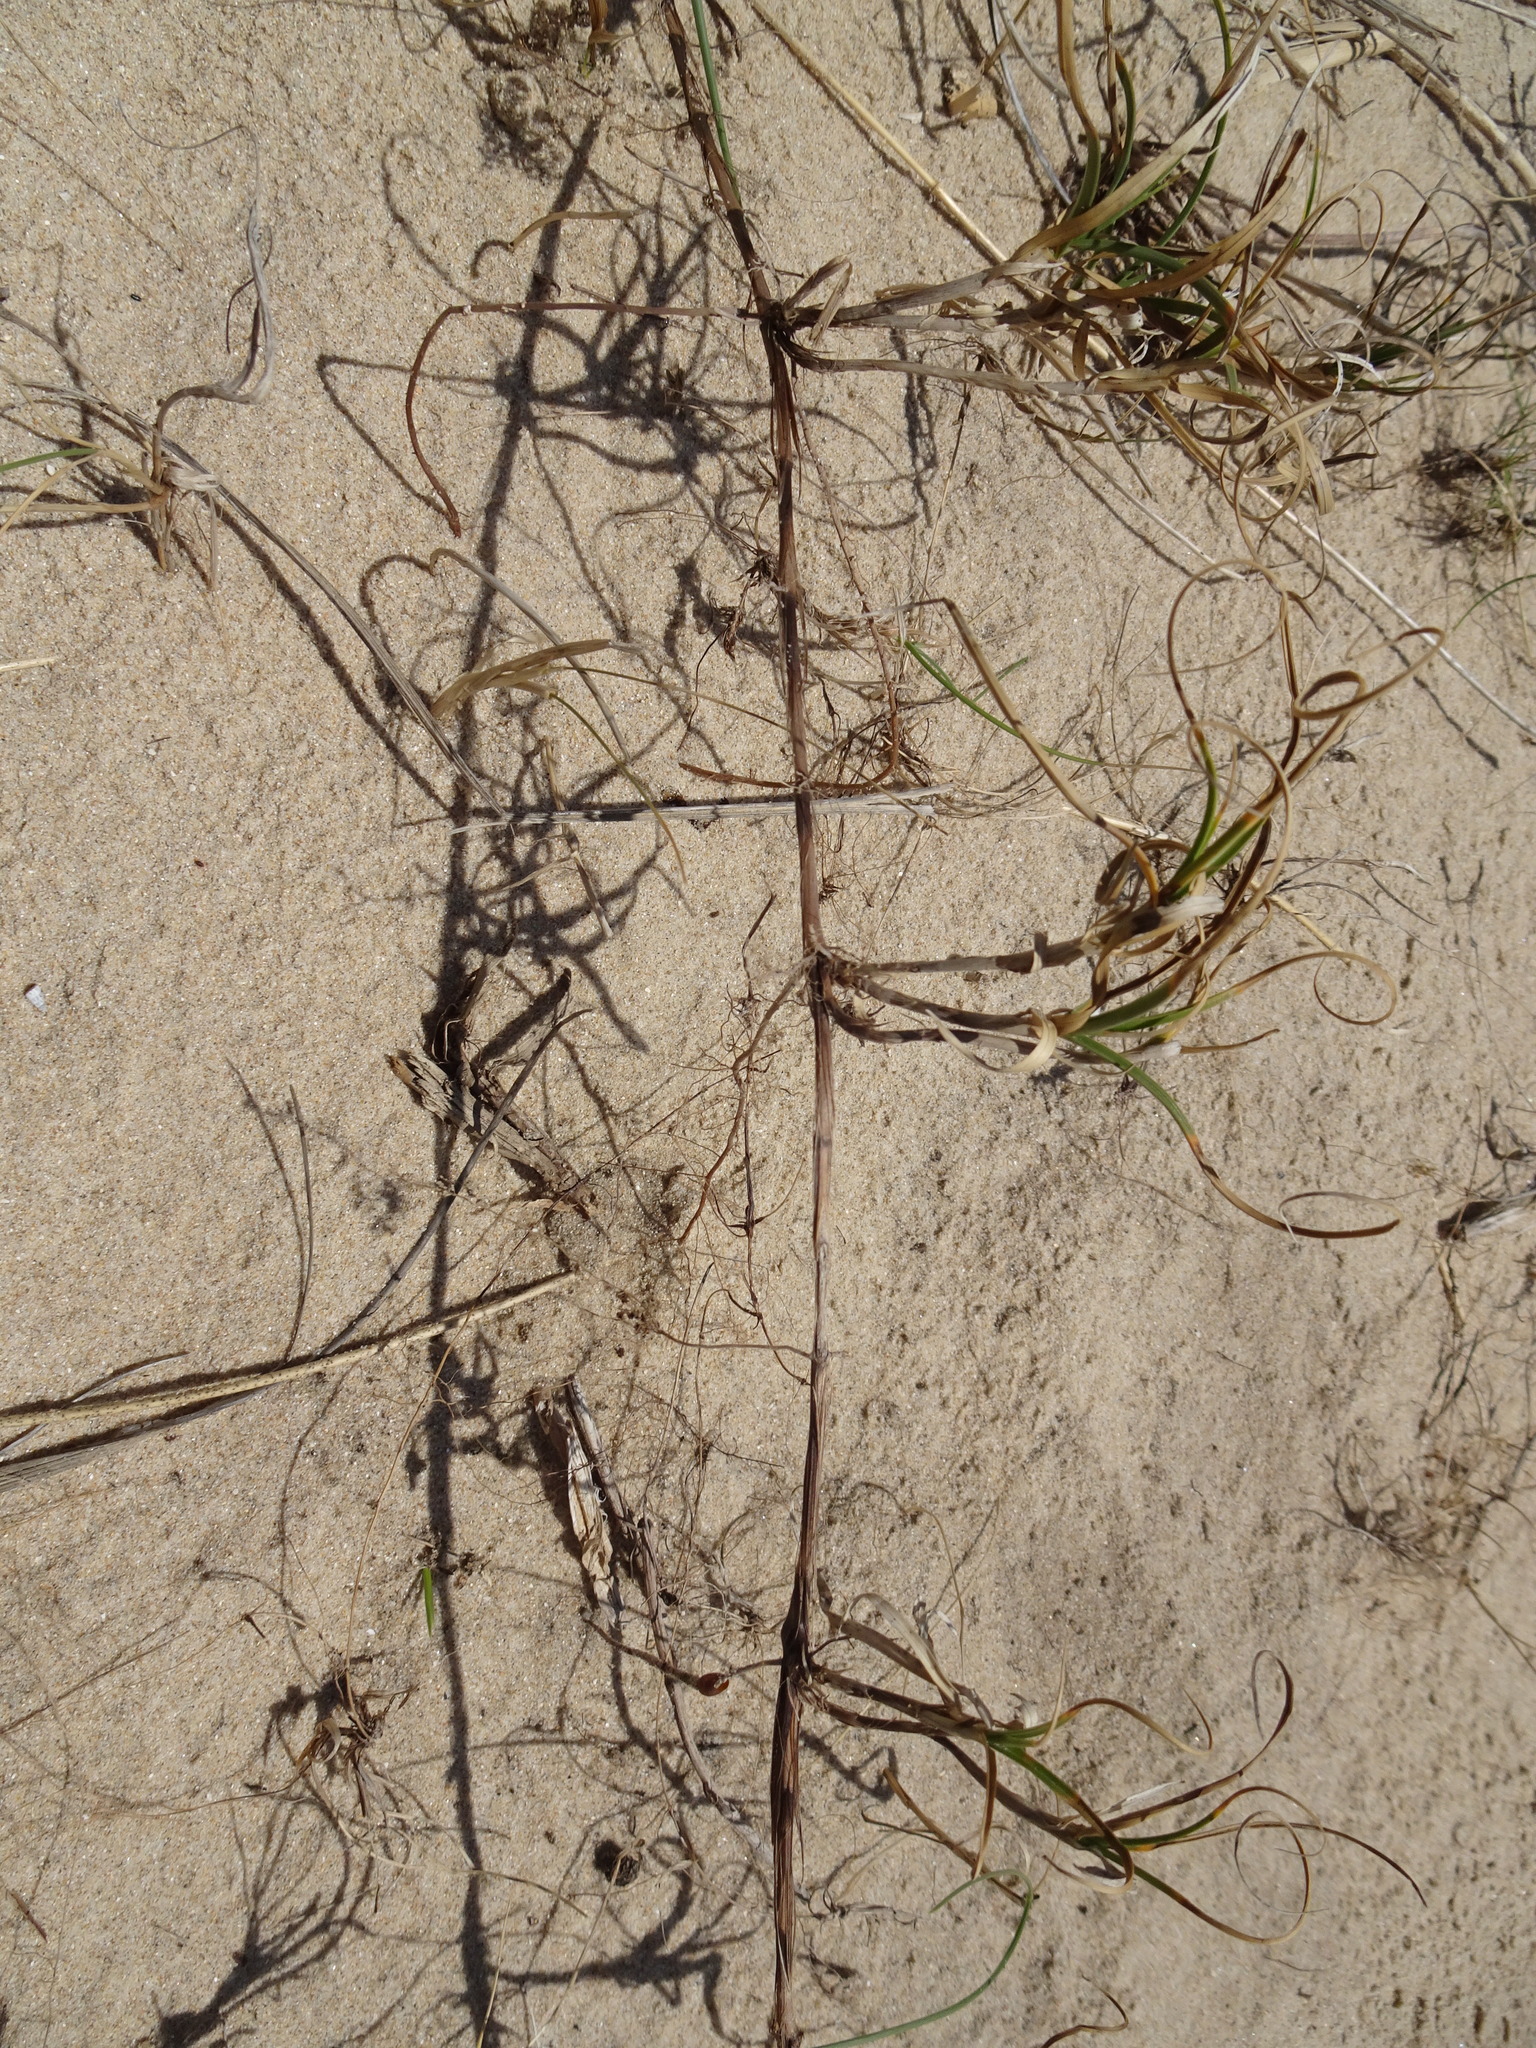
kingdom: Plantae
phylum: Tracheophyta
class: Liliopsida
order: Poales
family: Cyperaceae
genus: Carex
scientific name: Carex arenaria
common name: Sand sedge
